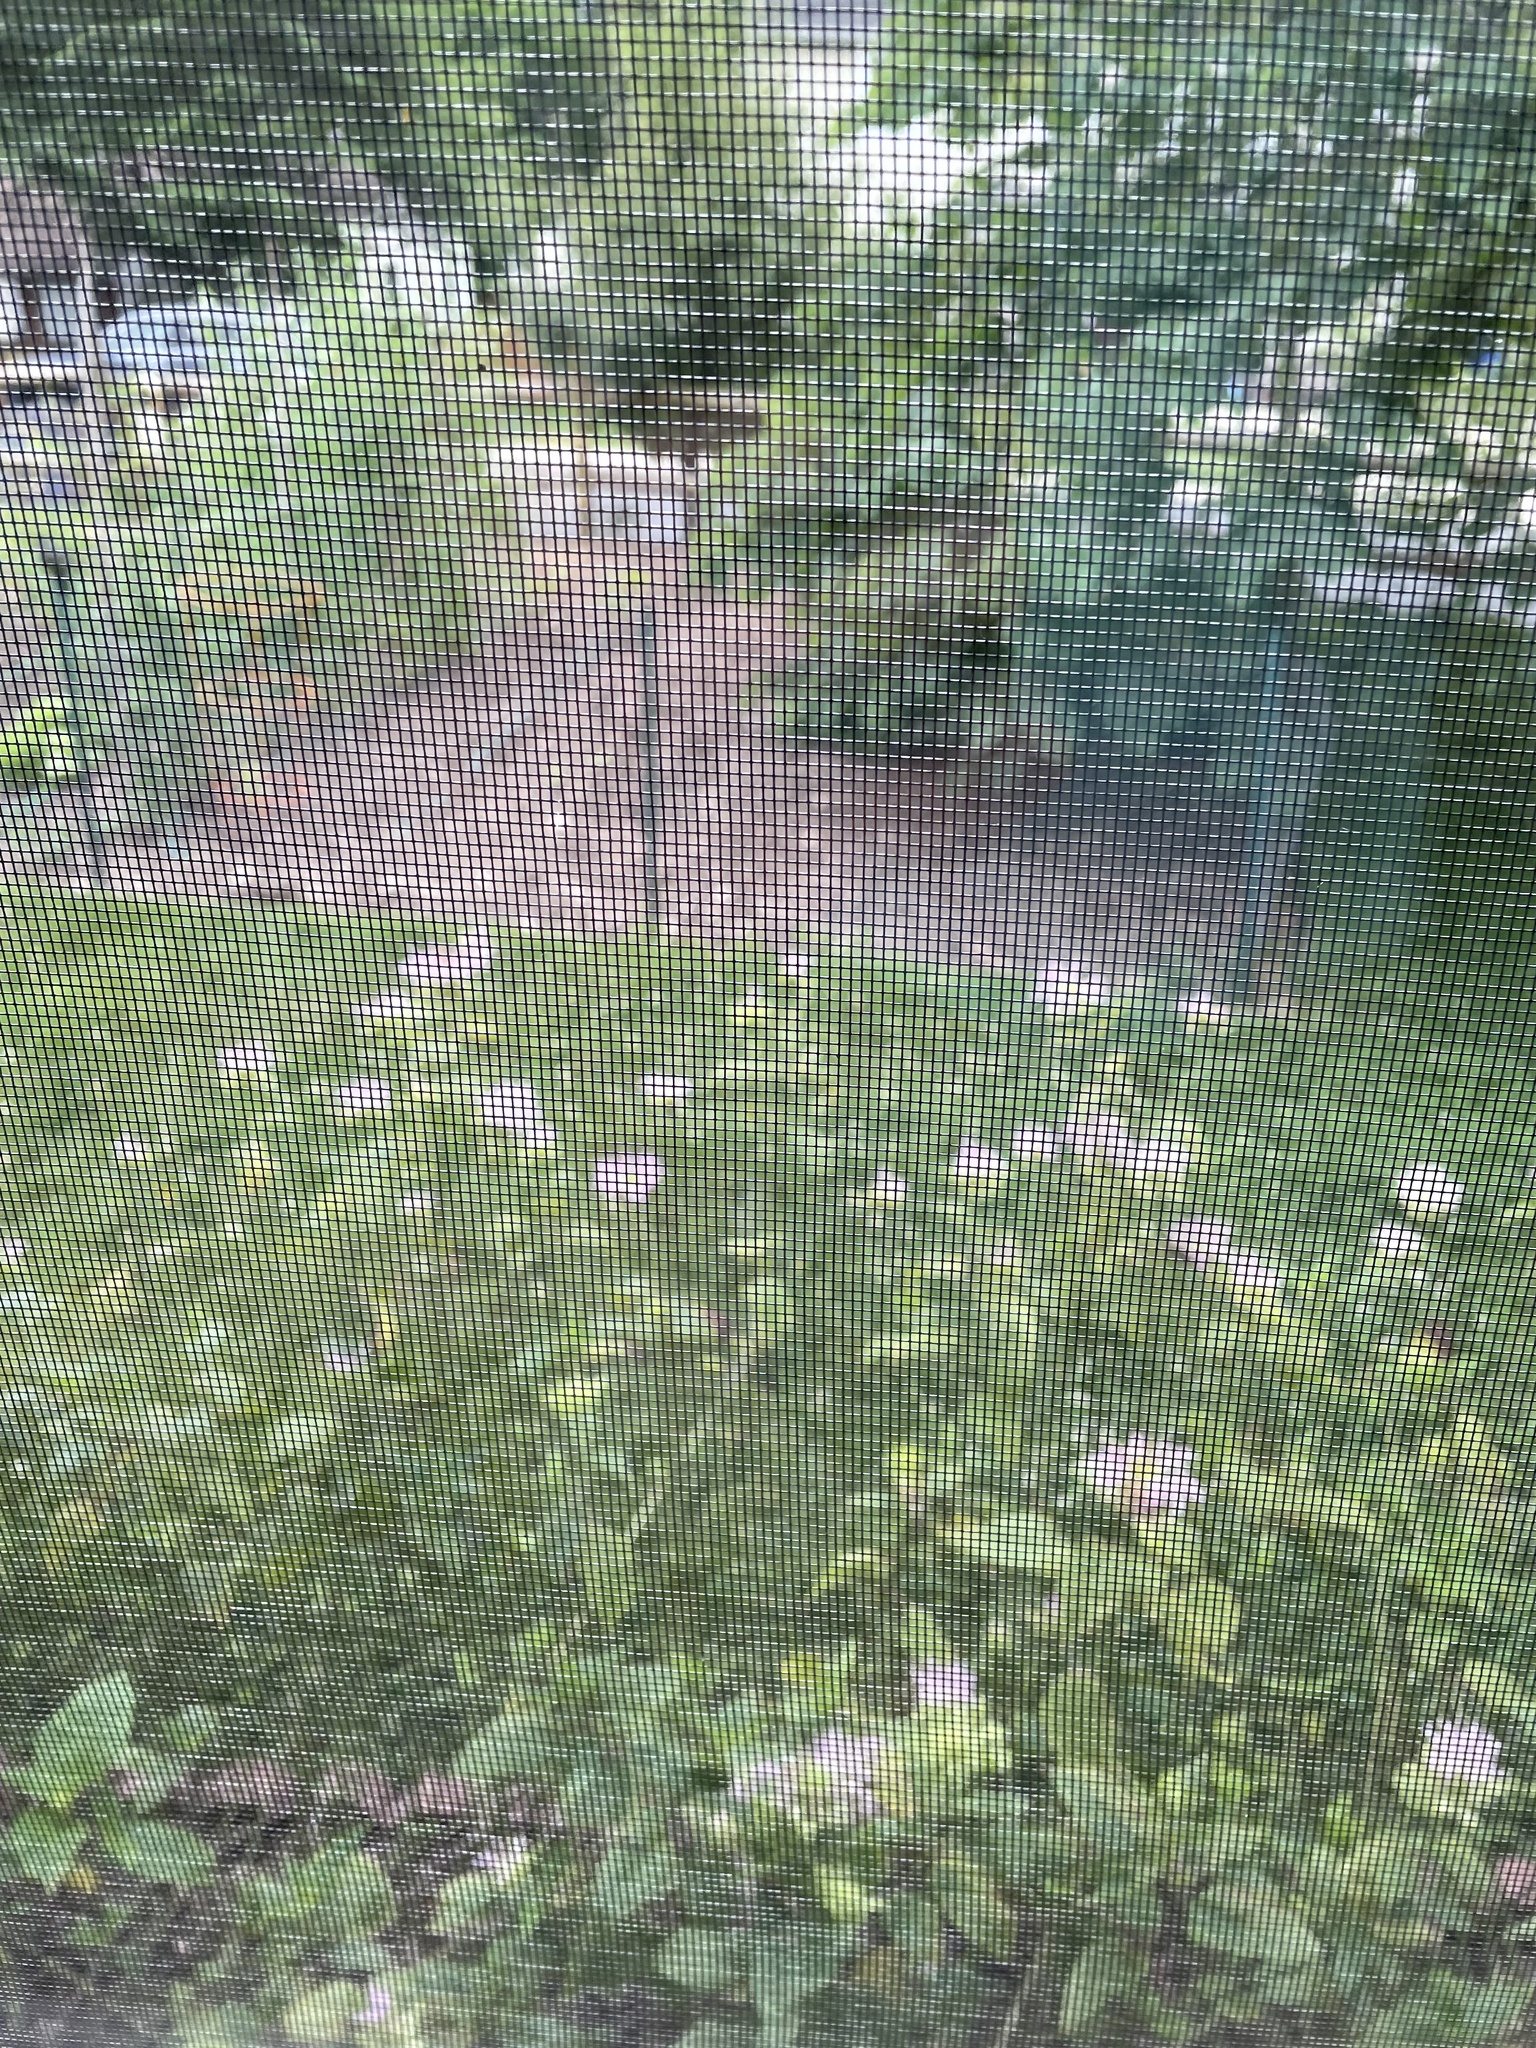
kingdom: Animalia
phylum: Chordata
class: Aves
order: Passeriformes
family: Tyrannidae
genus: Tyrannus
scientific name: Tyrannus tyrannus
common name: Eastern kingbird
